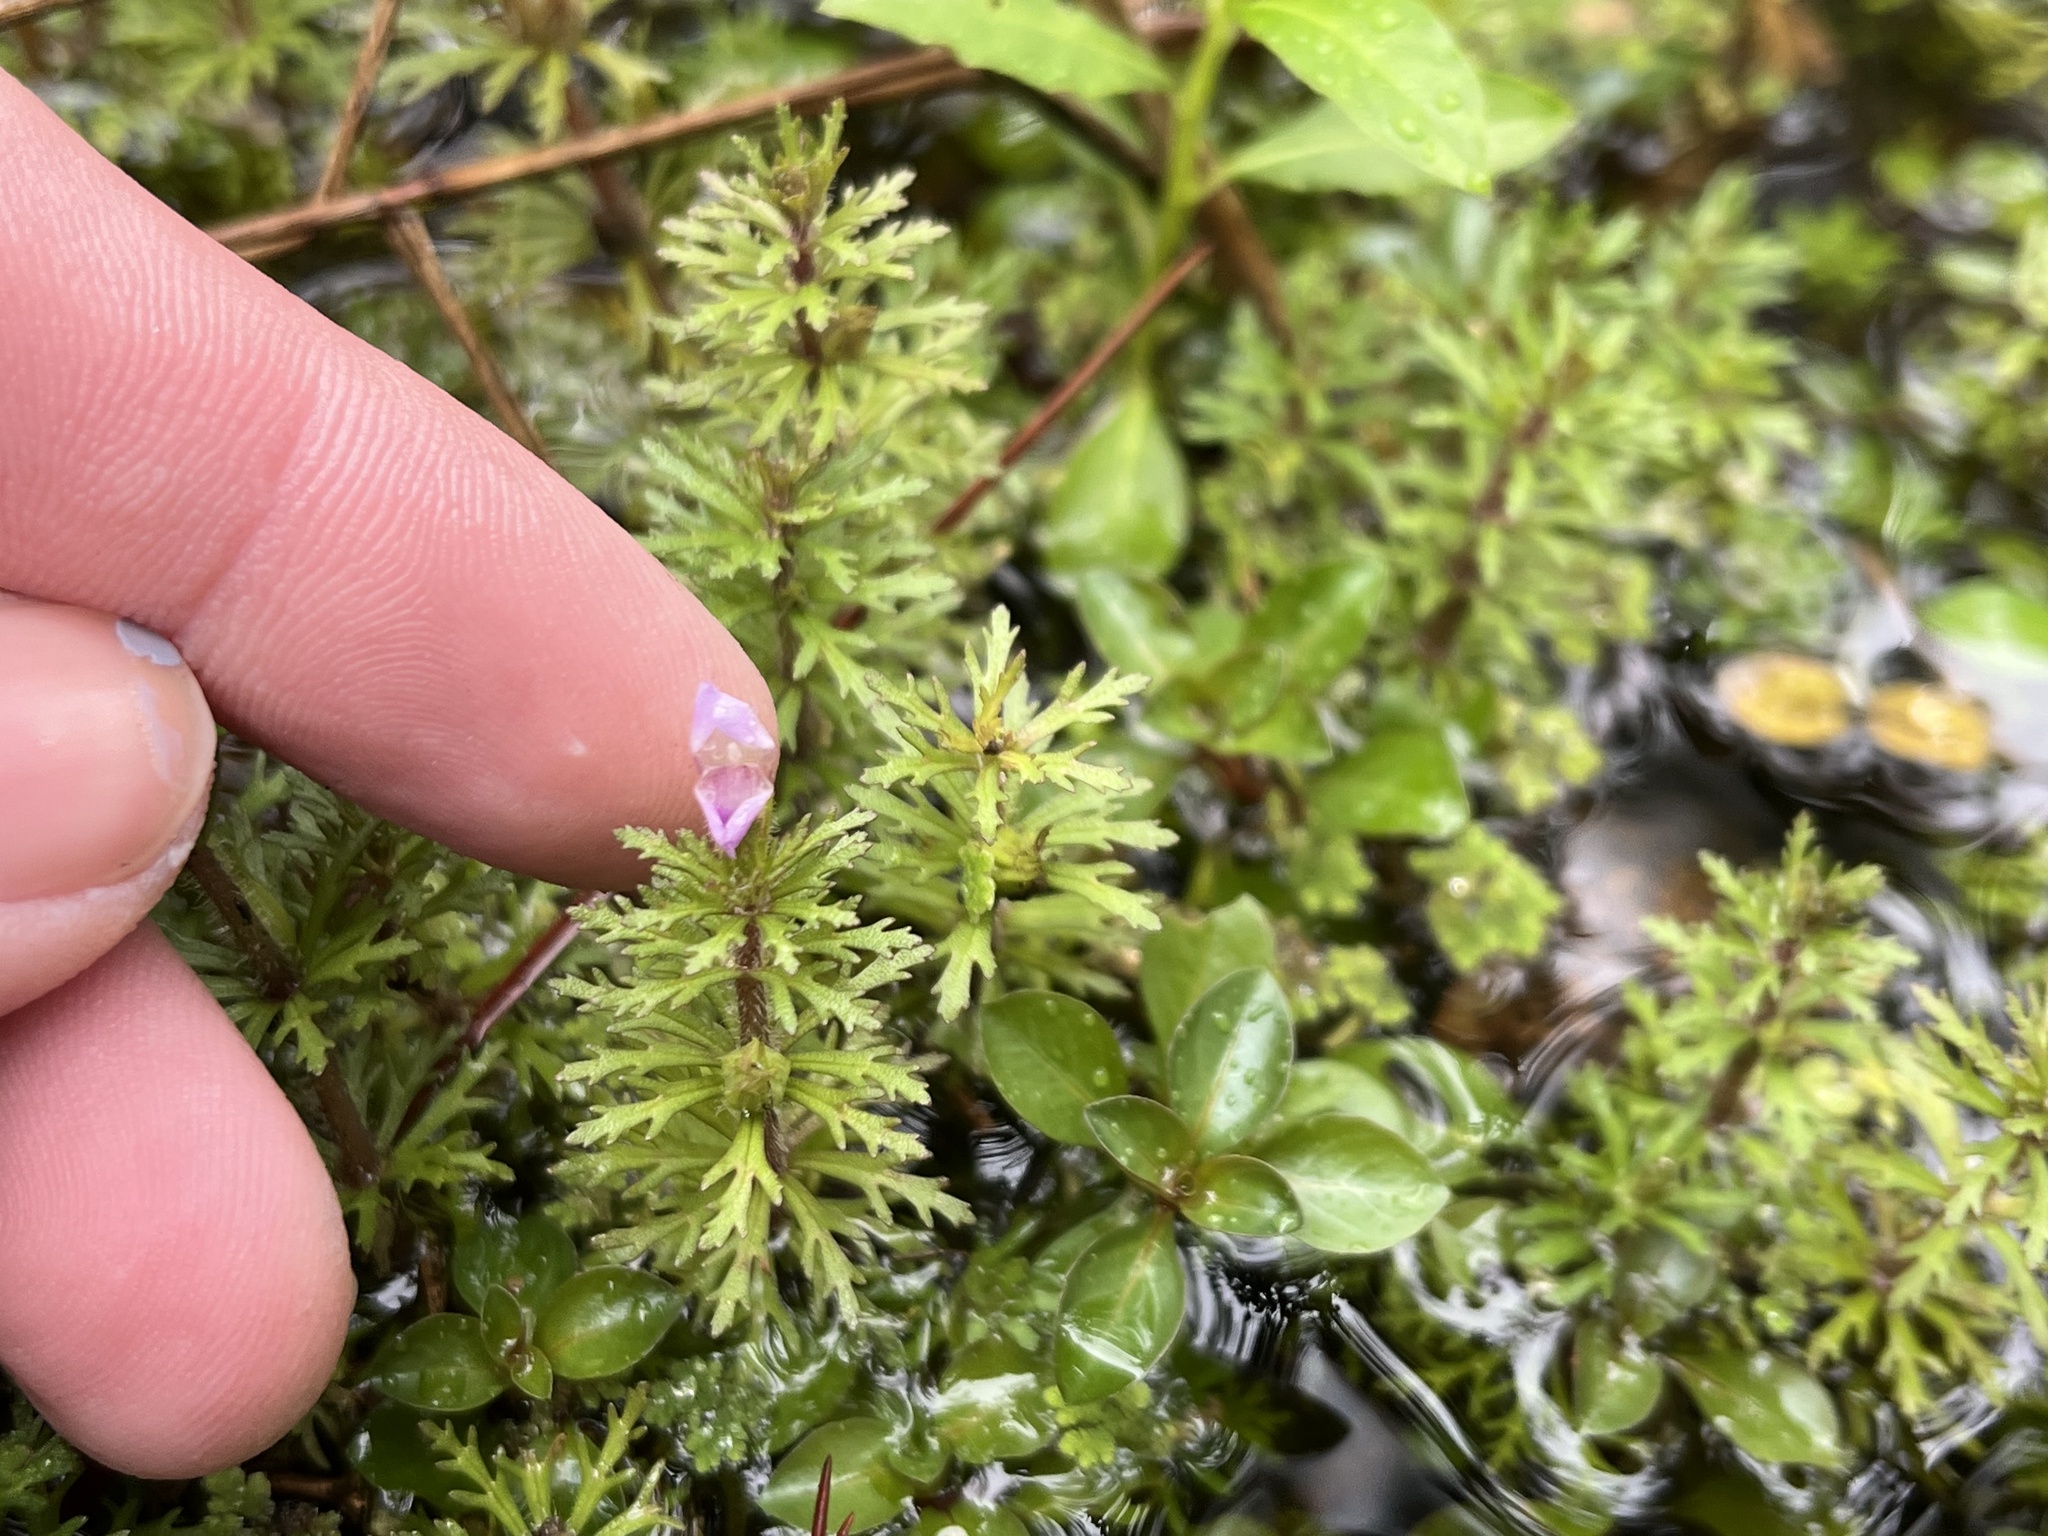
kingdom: Plantae
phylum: Tracheophyta
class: Magnoliopsida
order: Lamiales
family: Plantaginaceae
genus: Limnophila
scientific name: Limnophila sessiliflora
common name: Asian marshweed
